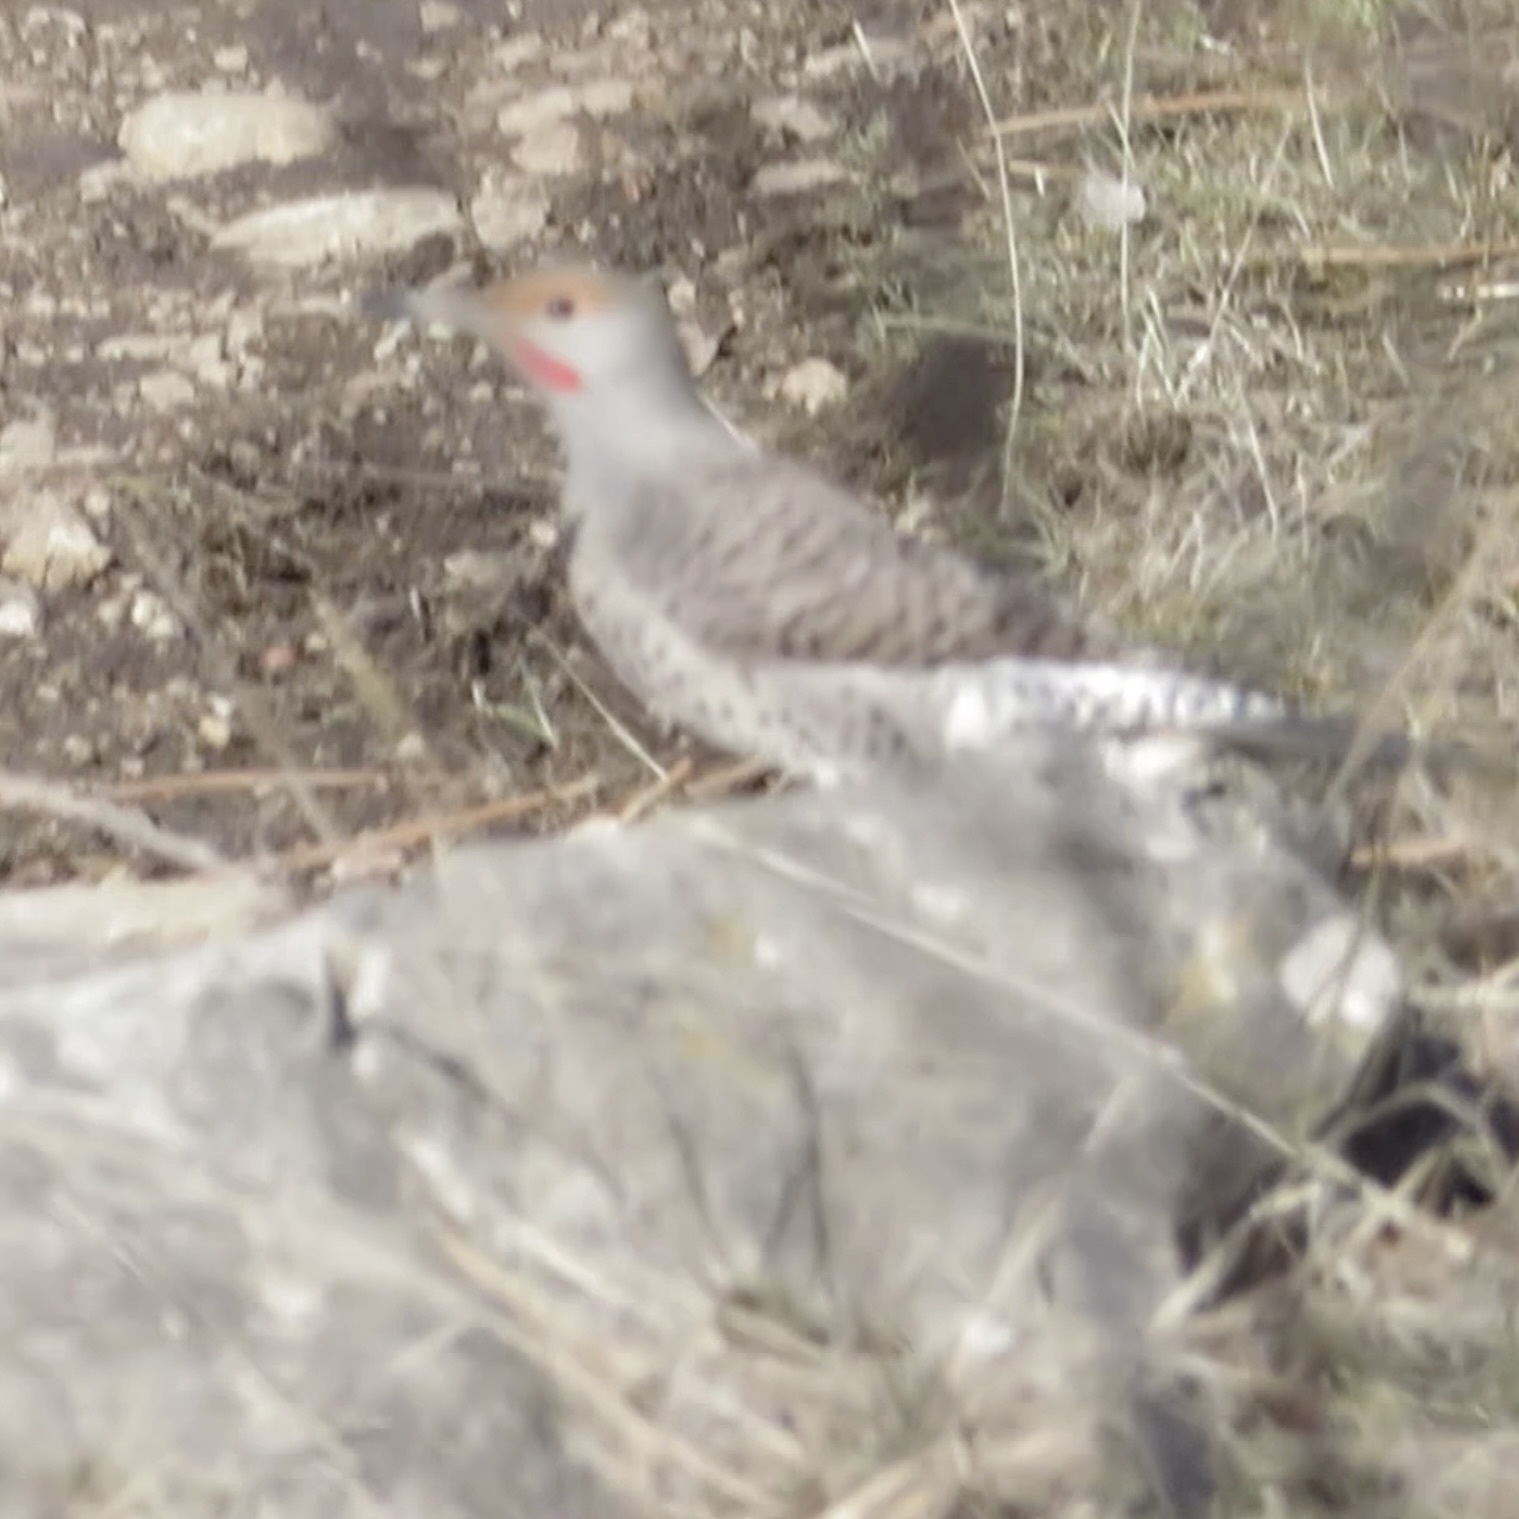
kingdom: Animalia
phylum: Chordata
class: Aves
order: Piciformes
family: Picidae
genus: Colaptes
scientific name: Colaptes auratus
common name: Northern flicker
